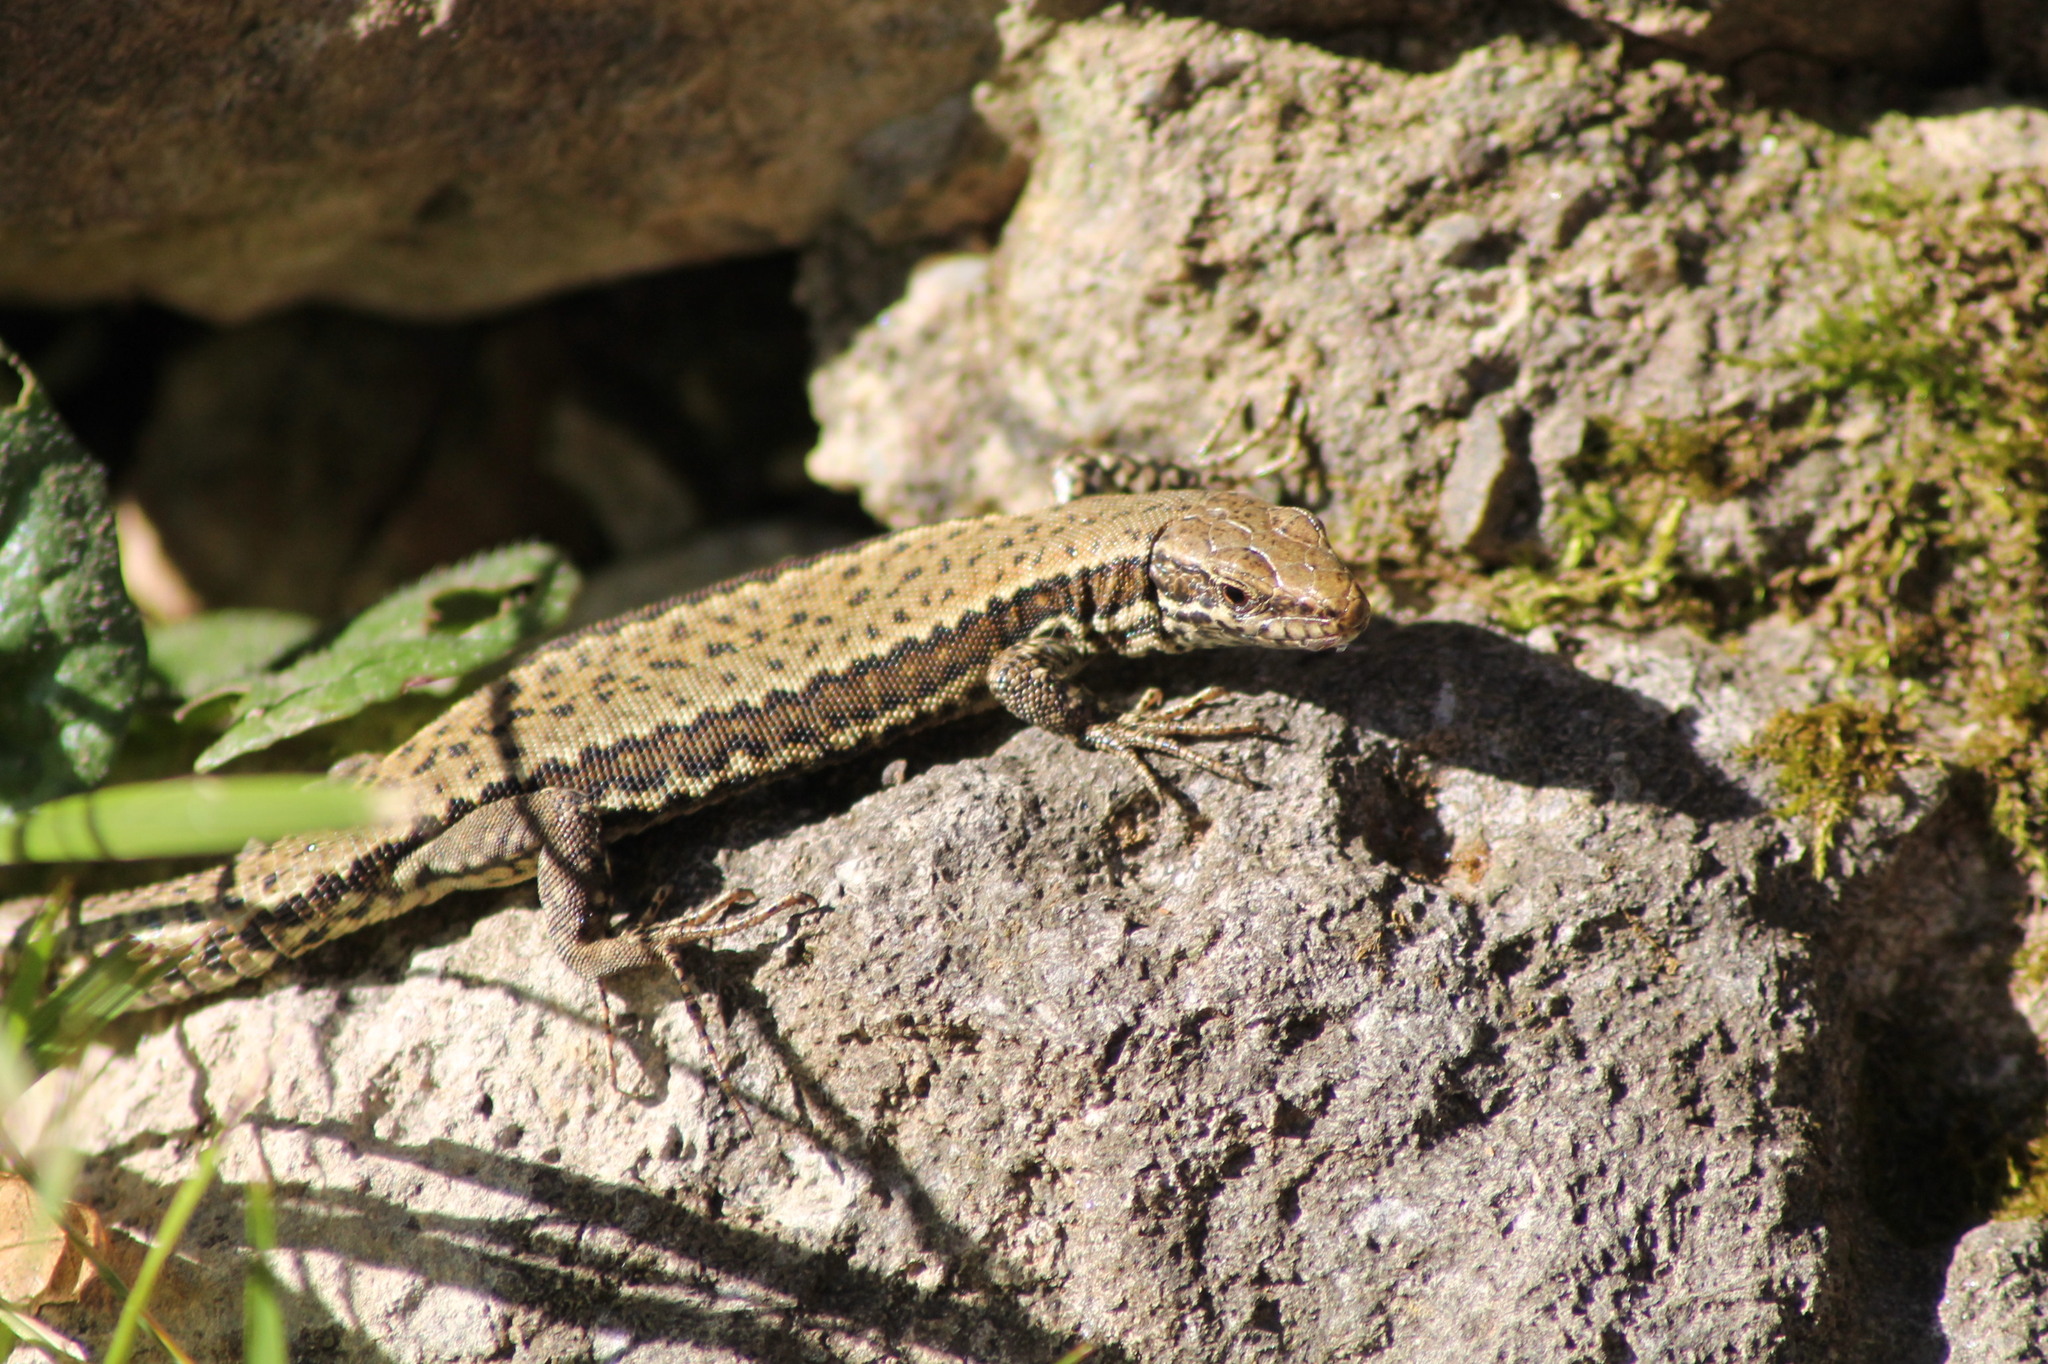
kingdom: Animalia
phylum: Chordata
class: Squamata
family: Lacertidae
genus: Podarcis
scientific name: Podarcis muralis
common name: Common wall lizard
